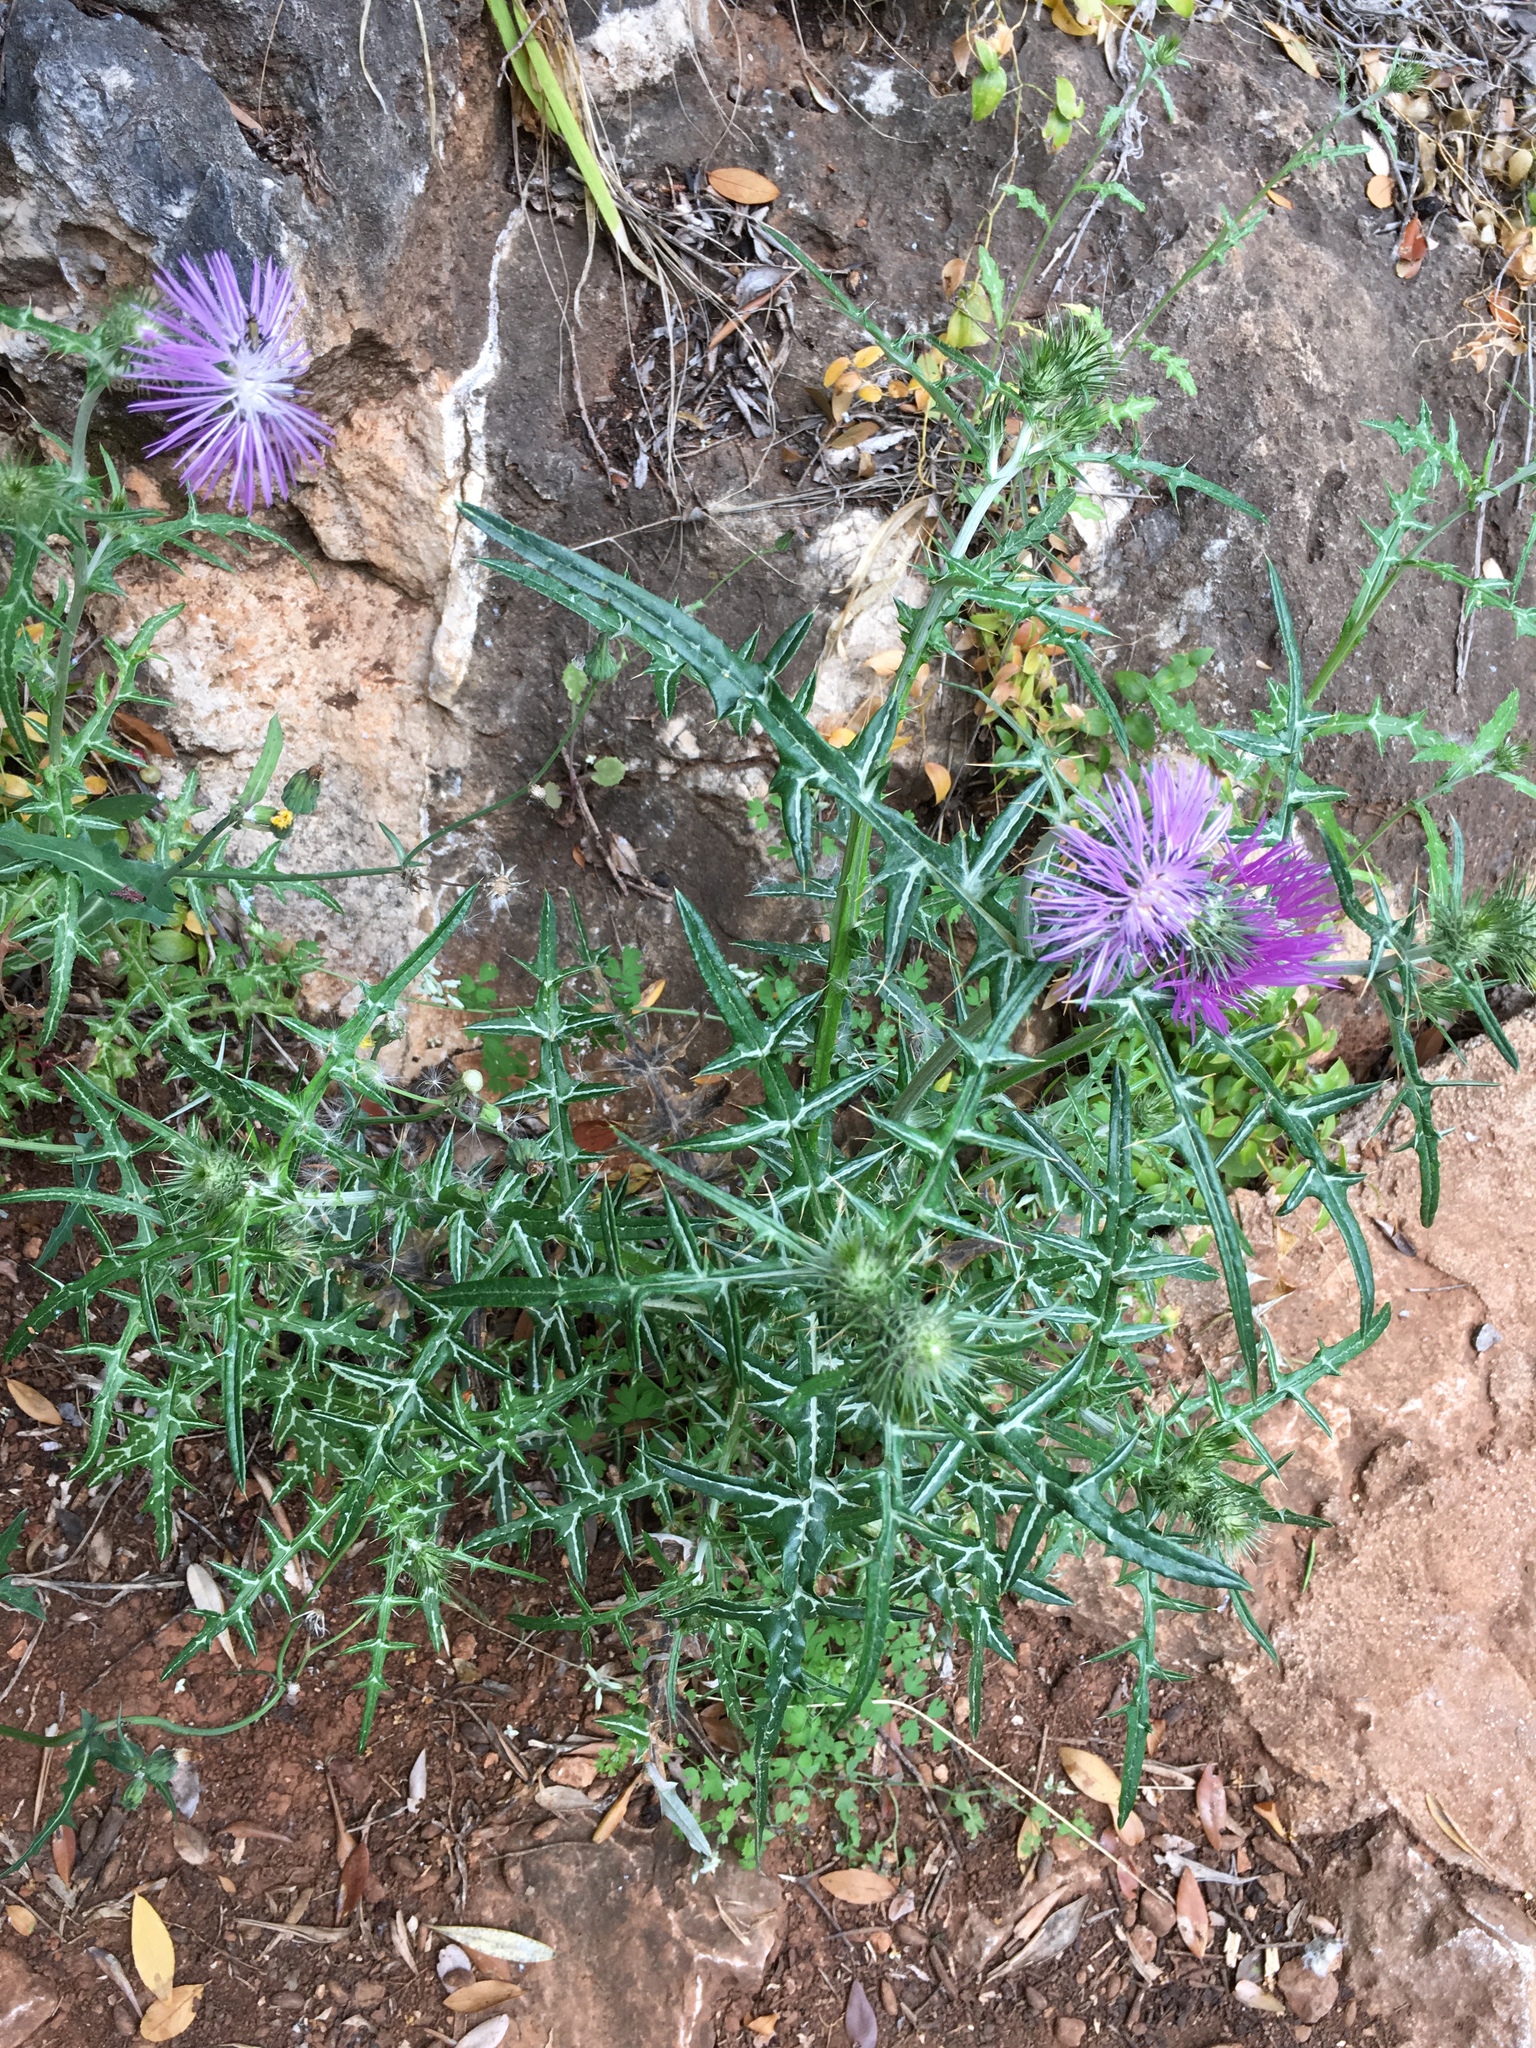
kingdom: Plantae
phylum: Tracheophyta
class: Magnoliopsida
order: Asterales
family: Asteraceae
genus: Galactites
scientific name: Galactites tomentosa
